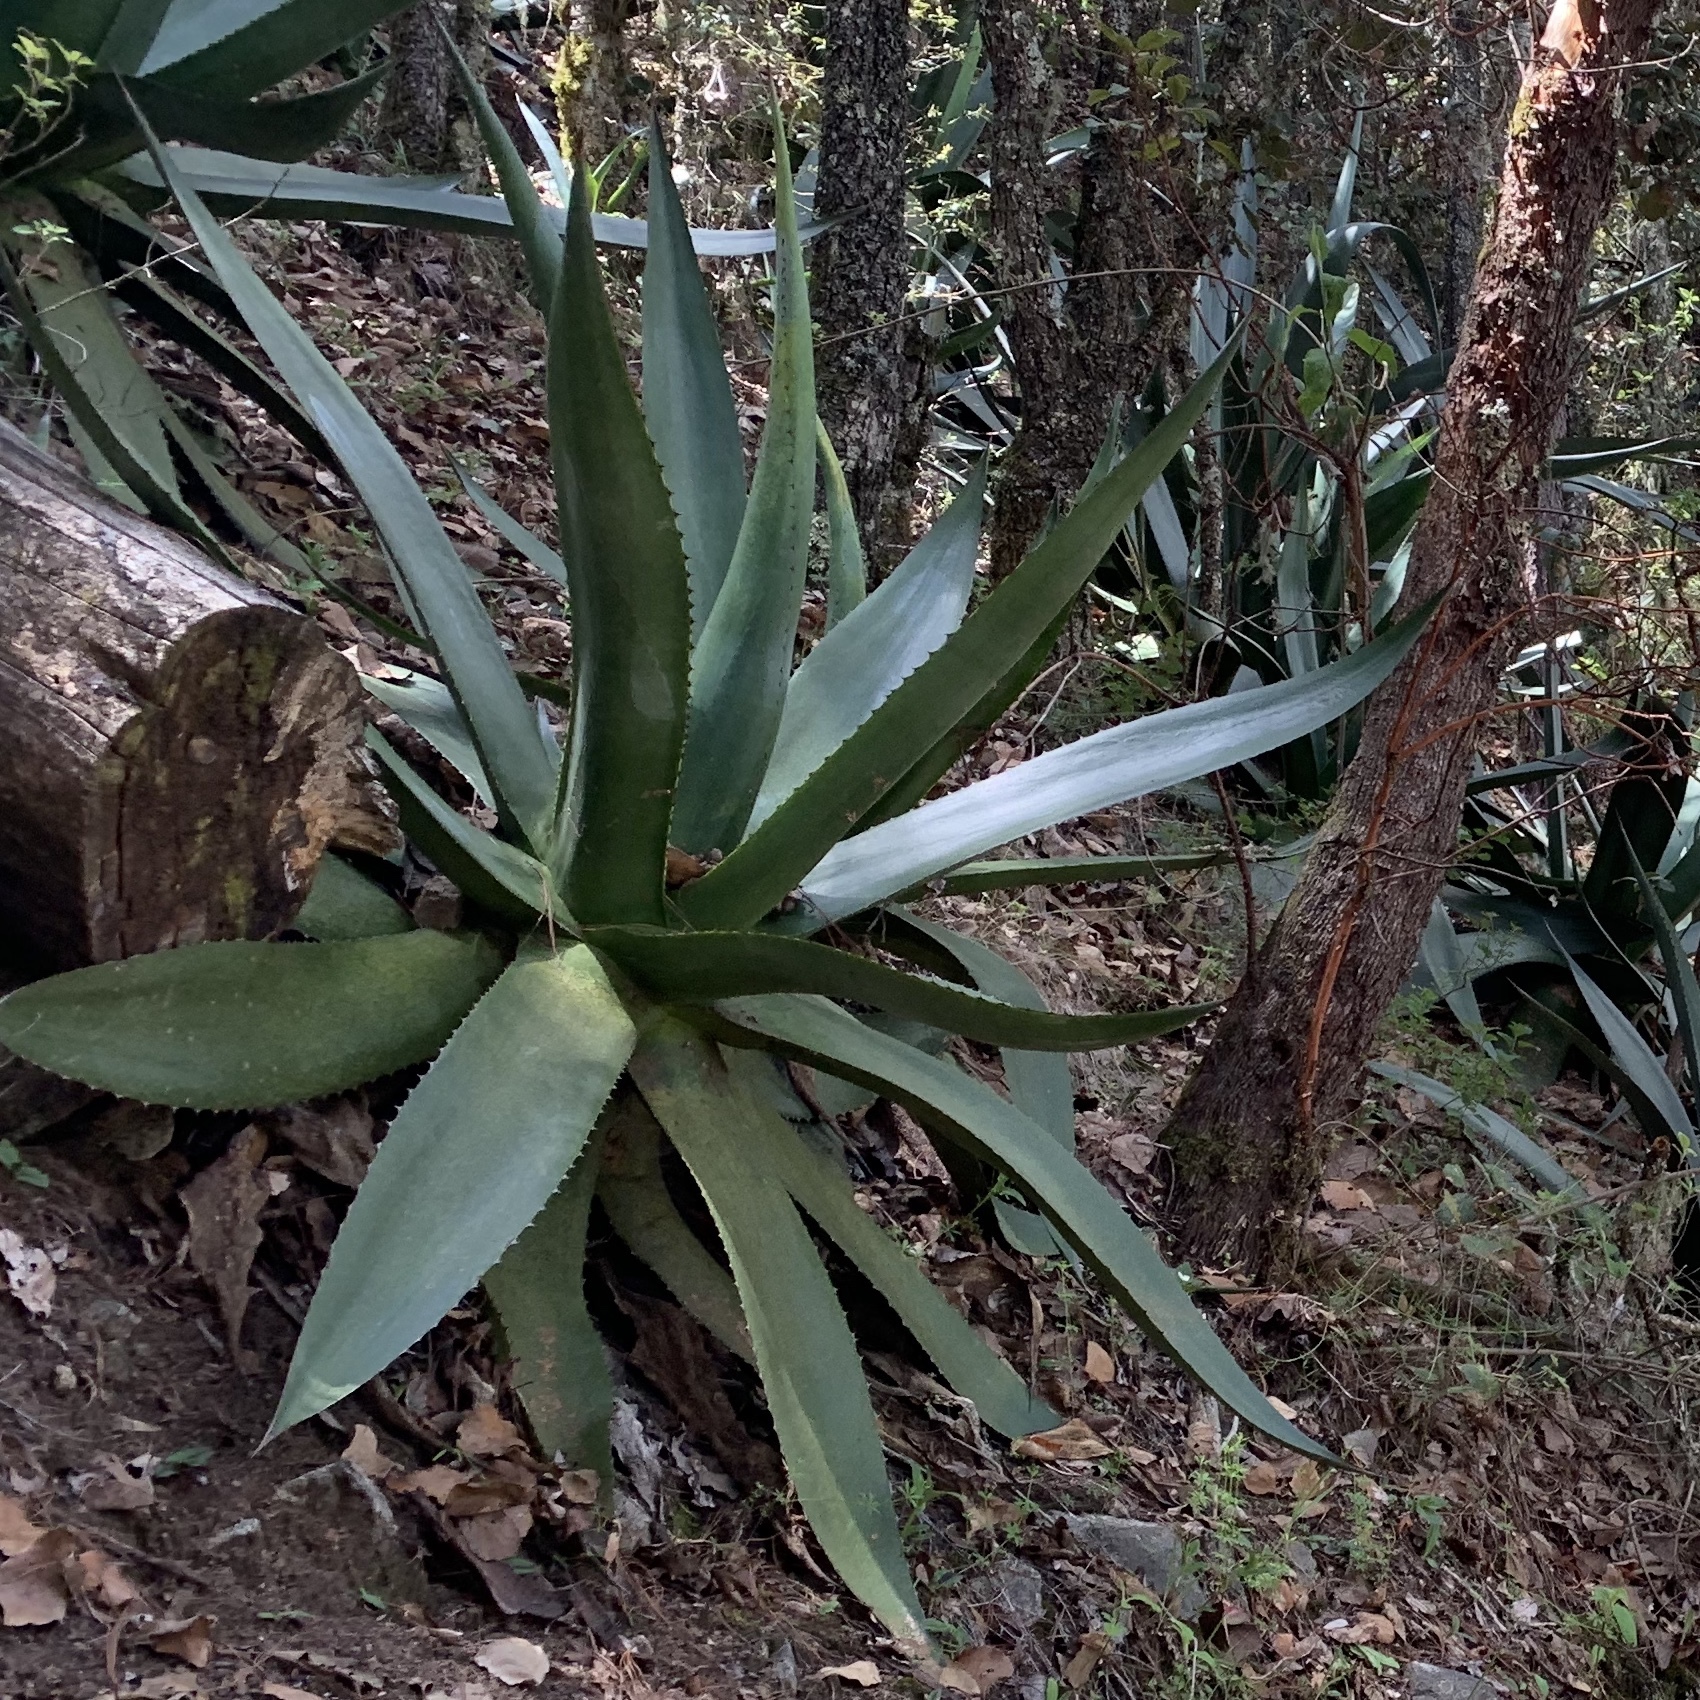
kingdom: Plantae
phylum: Tracheophyta
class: Liliopsida
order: Asparagales
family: Asparagaceae
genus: Agave
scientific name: Agave atrovirens
